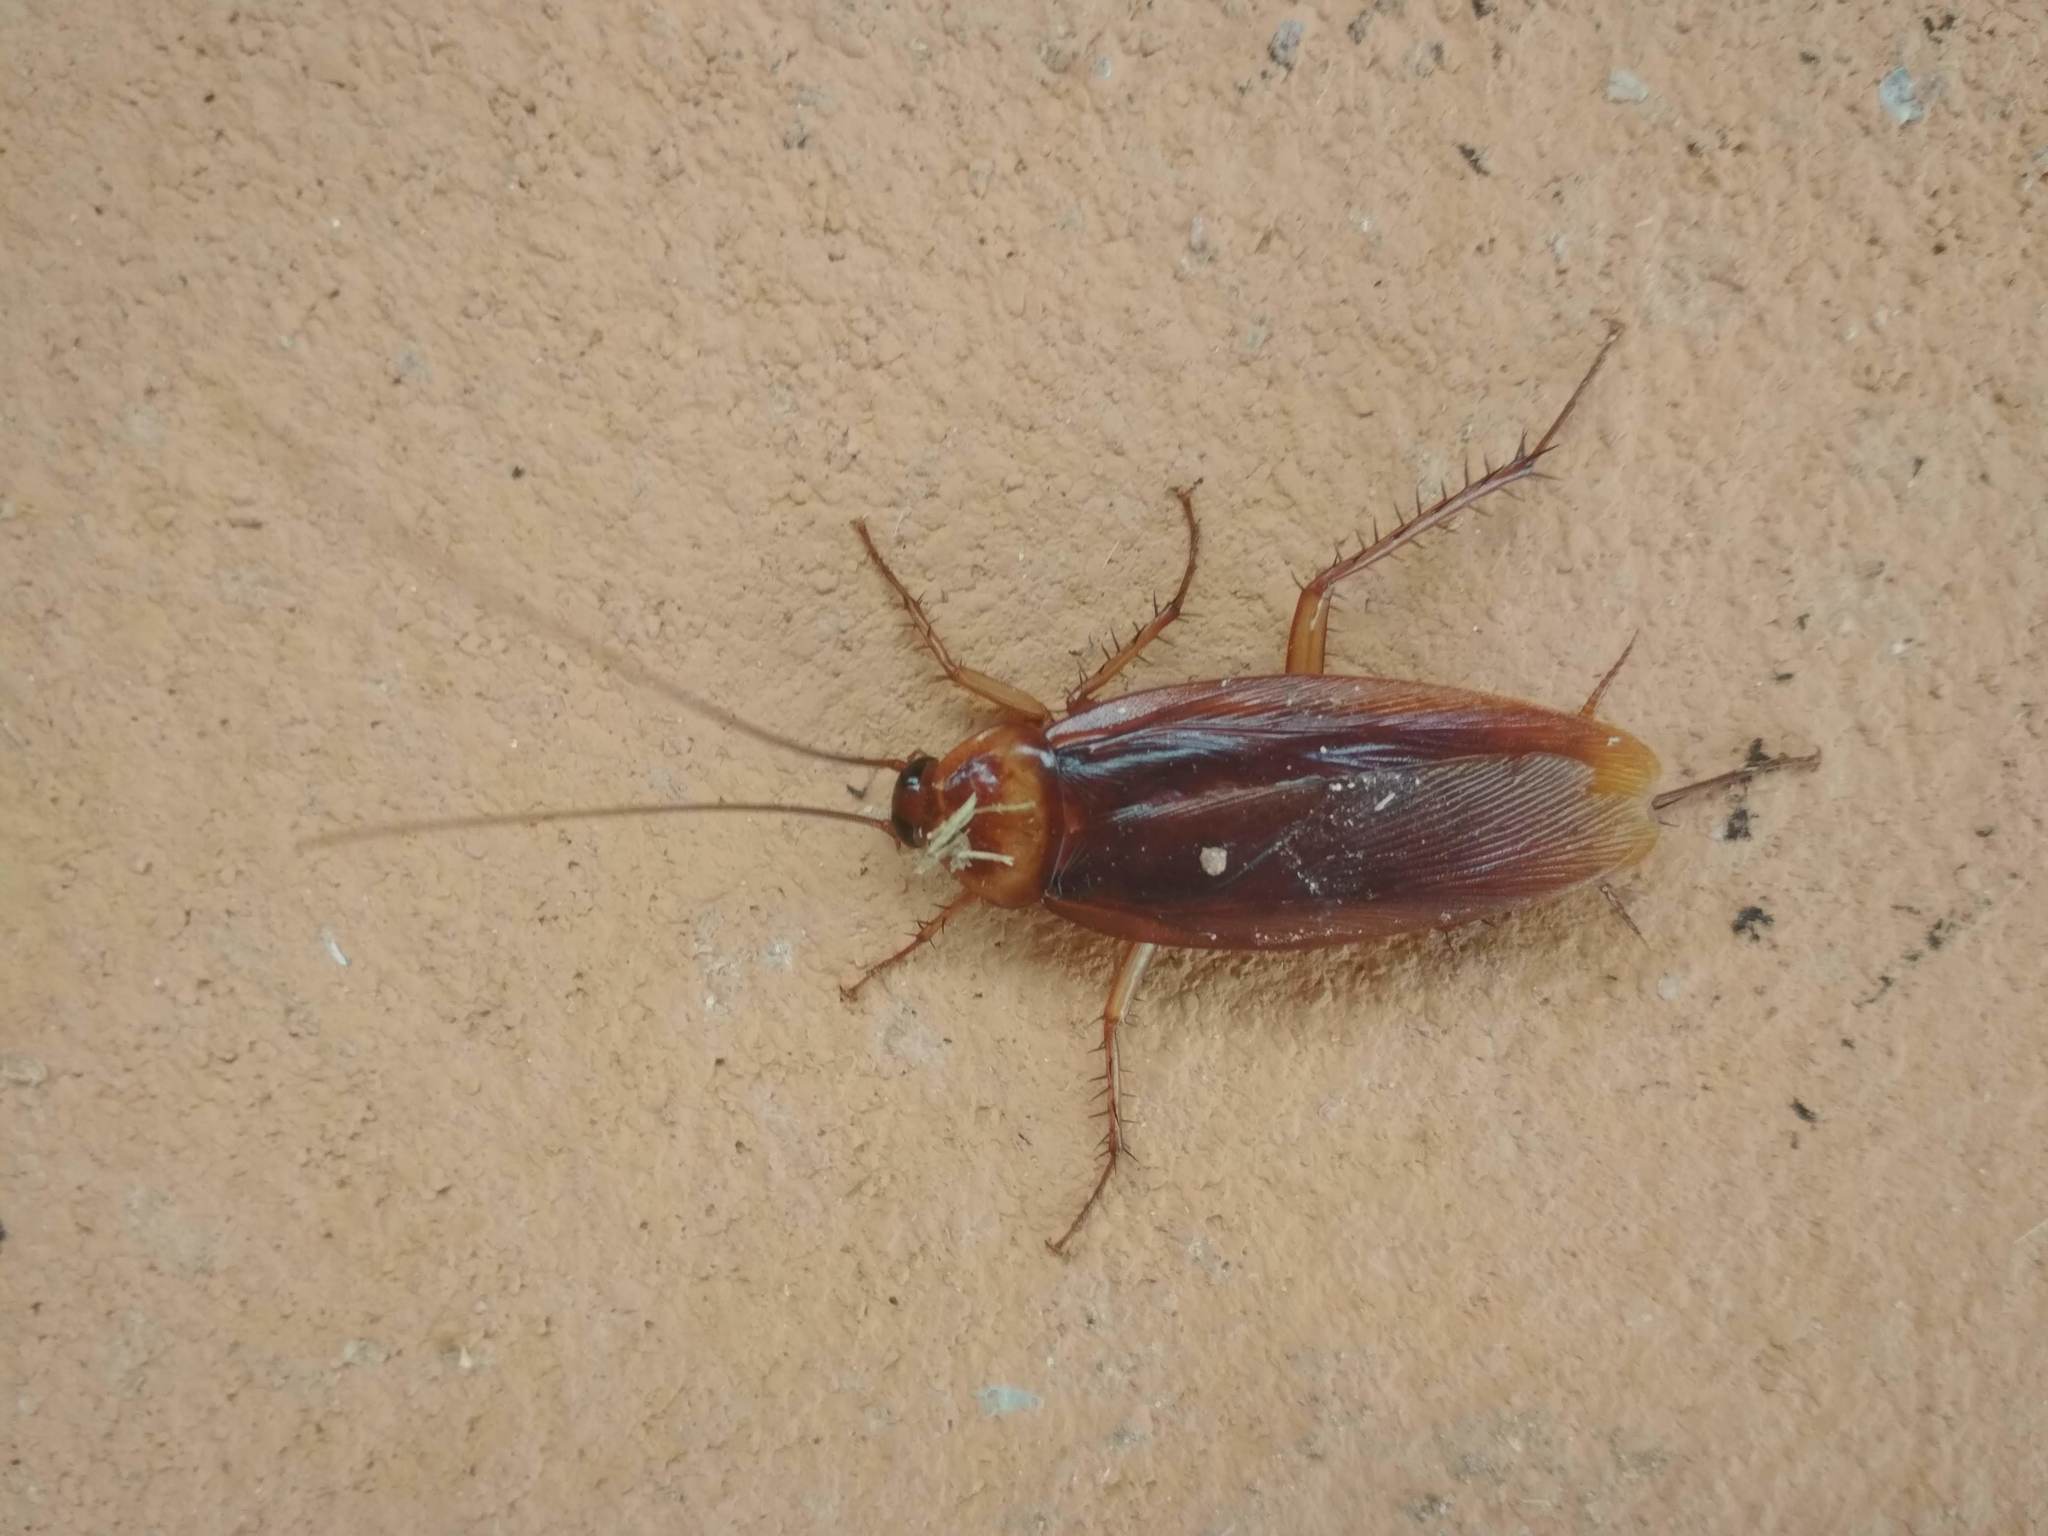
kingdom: Animalia
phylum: Arthropoda
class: Insecta
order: Blattodea
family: Blattidae
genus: Periplaneta
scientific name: Periplaneta americana
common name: American cockroach
